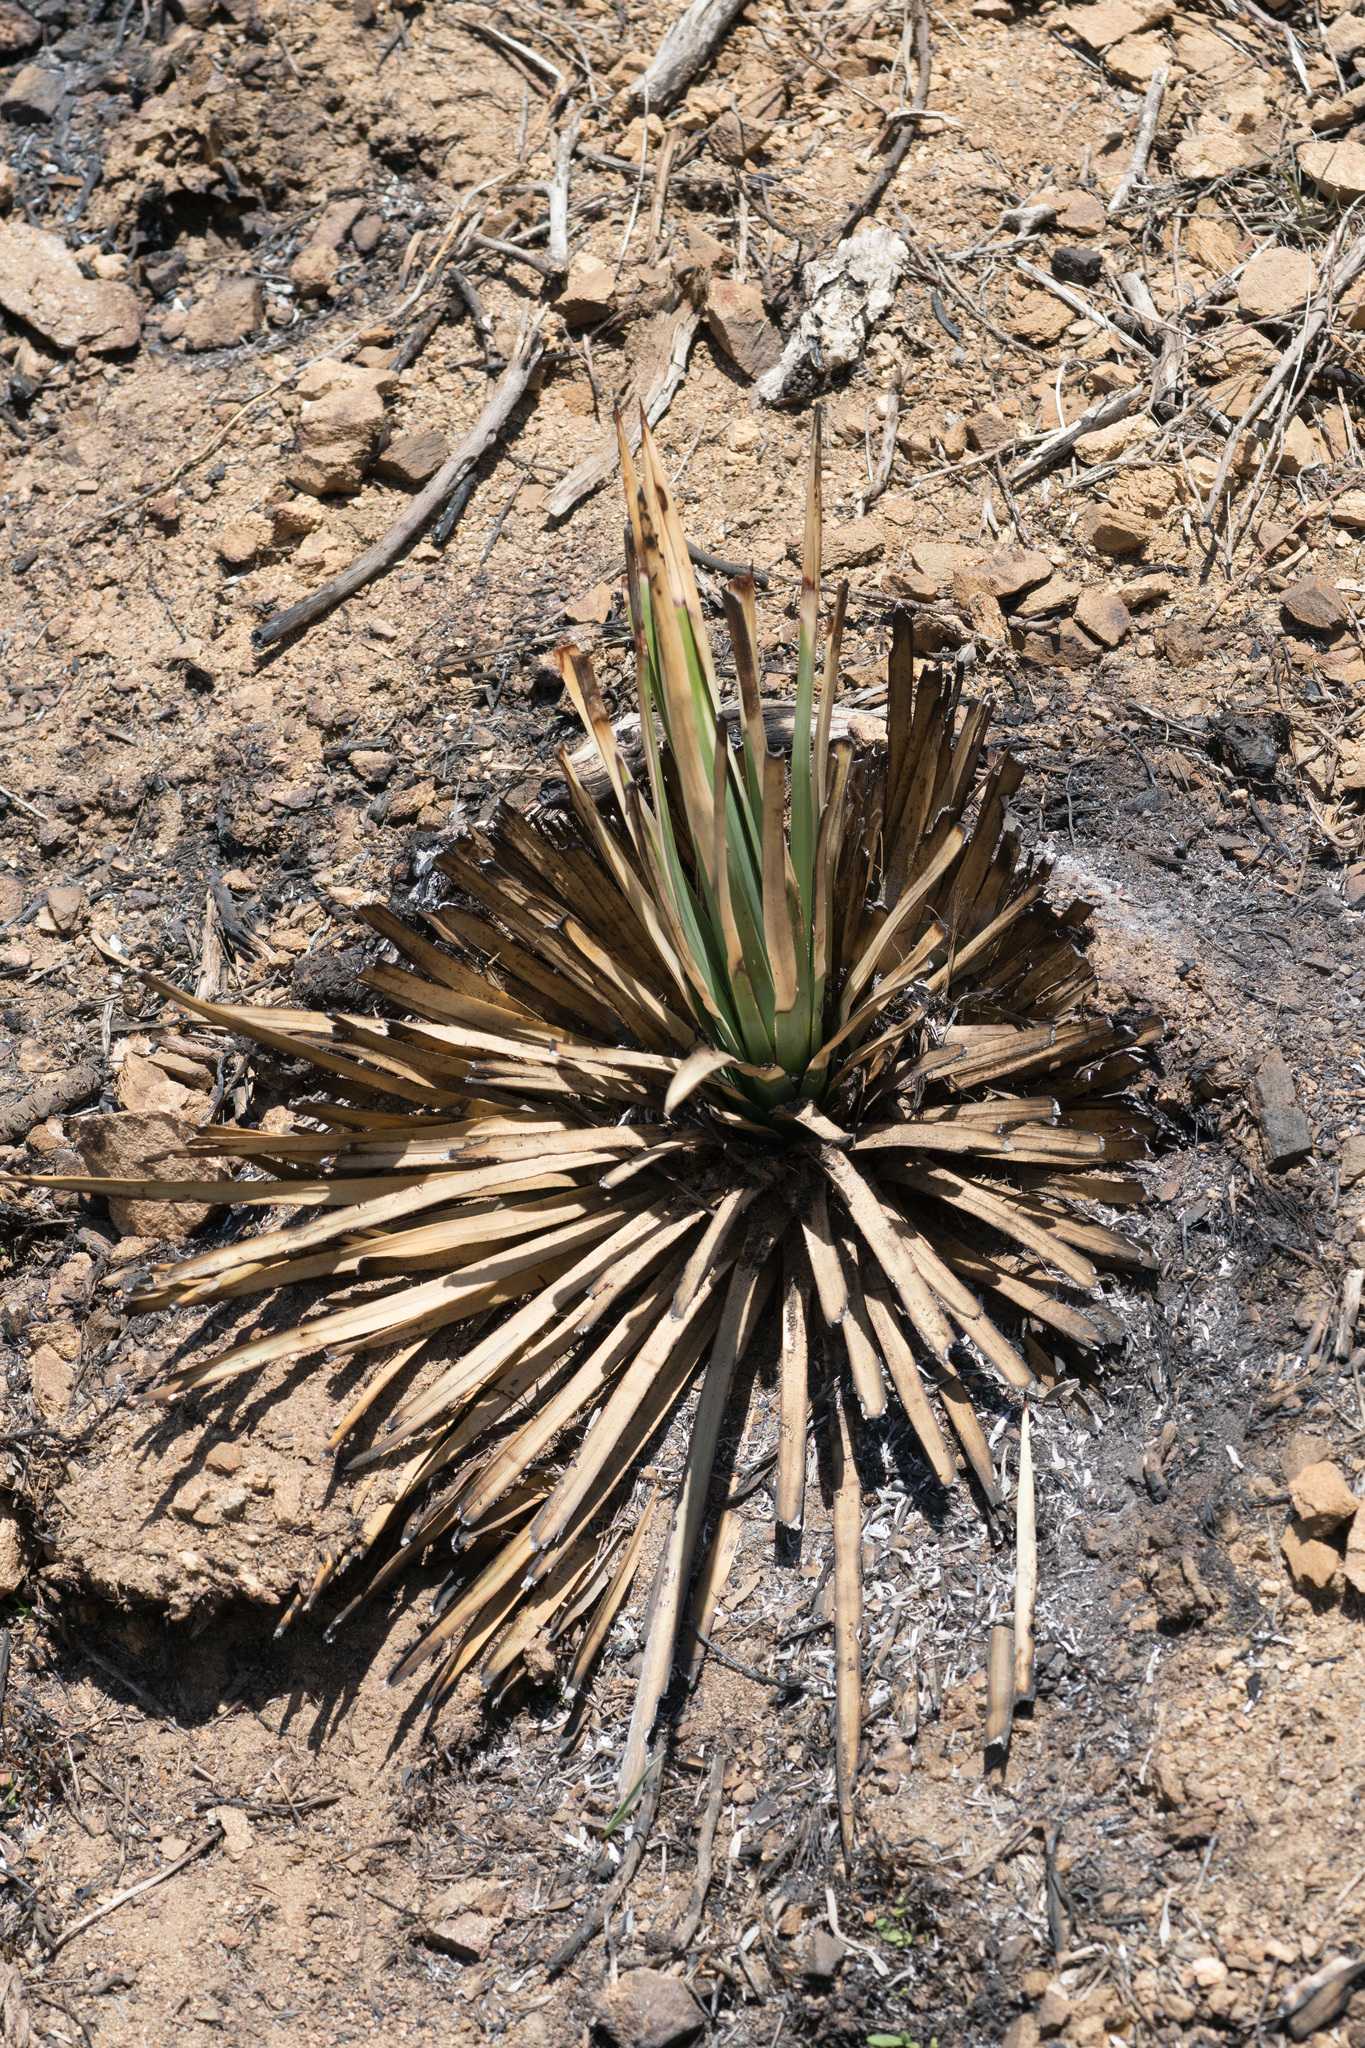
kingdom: Plantae
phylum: Tracheophyta
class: Liliopsida
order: Asparagales
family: Asparagaceae
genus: Hesperoyucca
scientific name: Hesperoyucca whipplei
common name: Our lord's-candle
